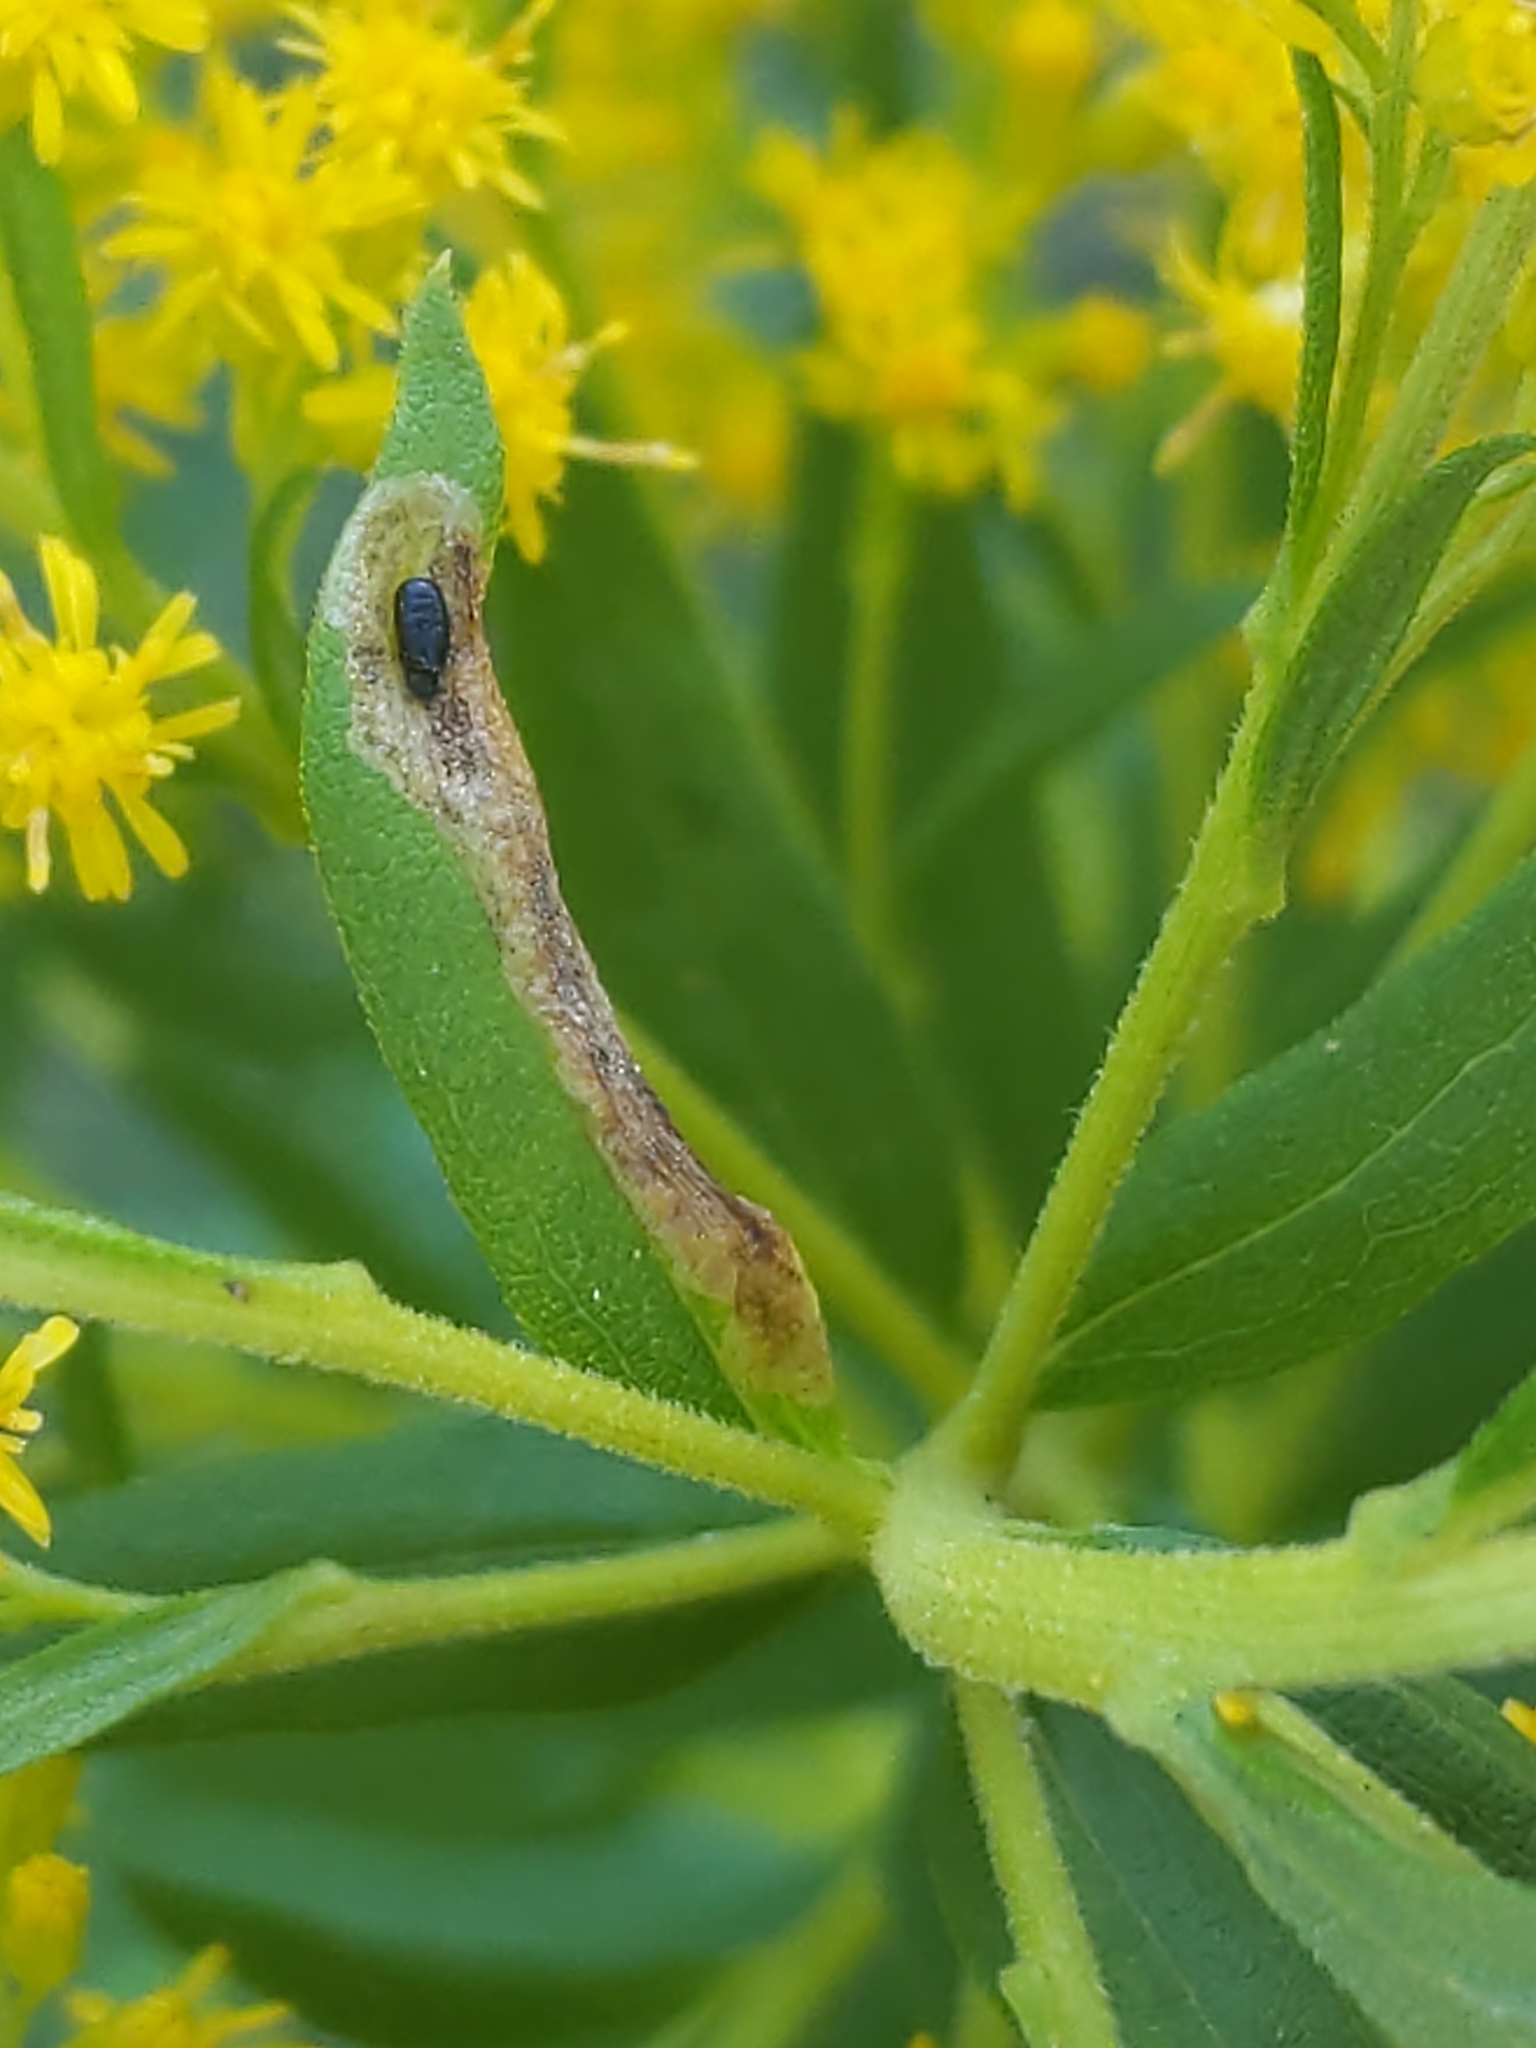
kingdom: Animalia
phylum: Arthropoda
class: Insecta
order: Diptera
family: Agromyzidae
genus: Calycomyza
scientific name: Calycomyza solidaginis
